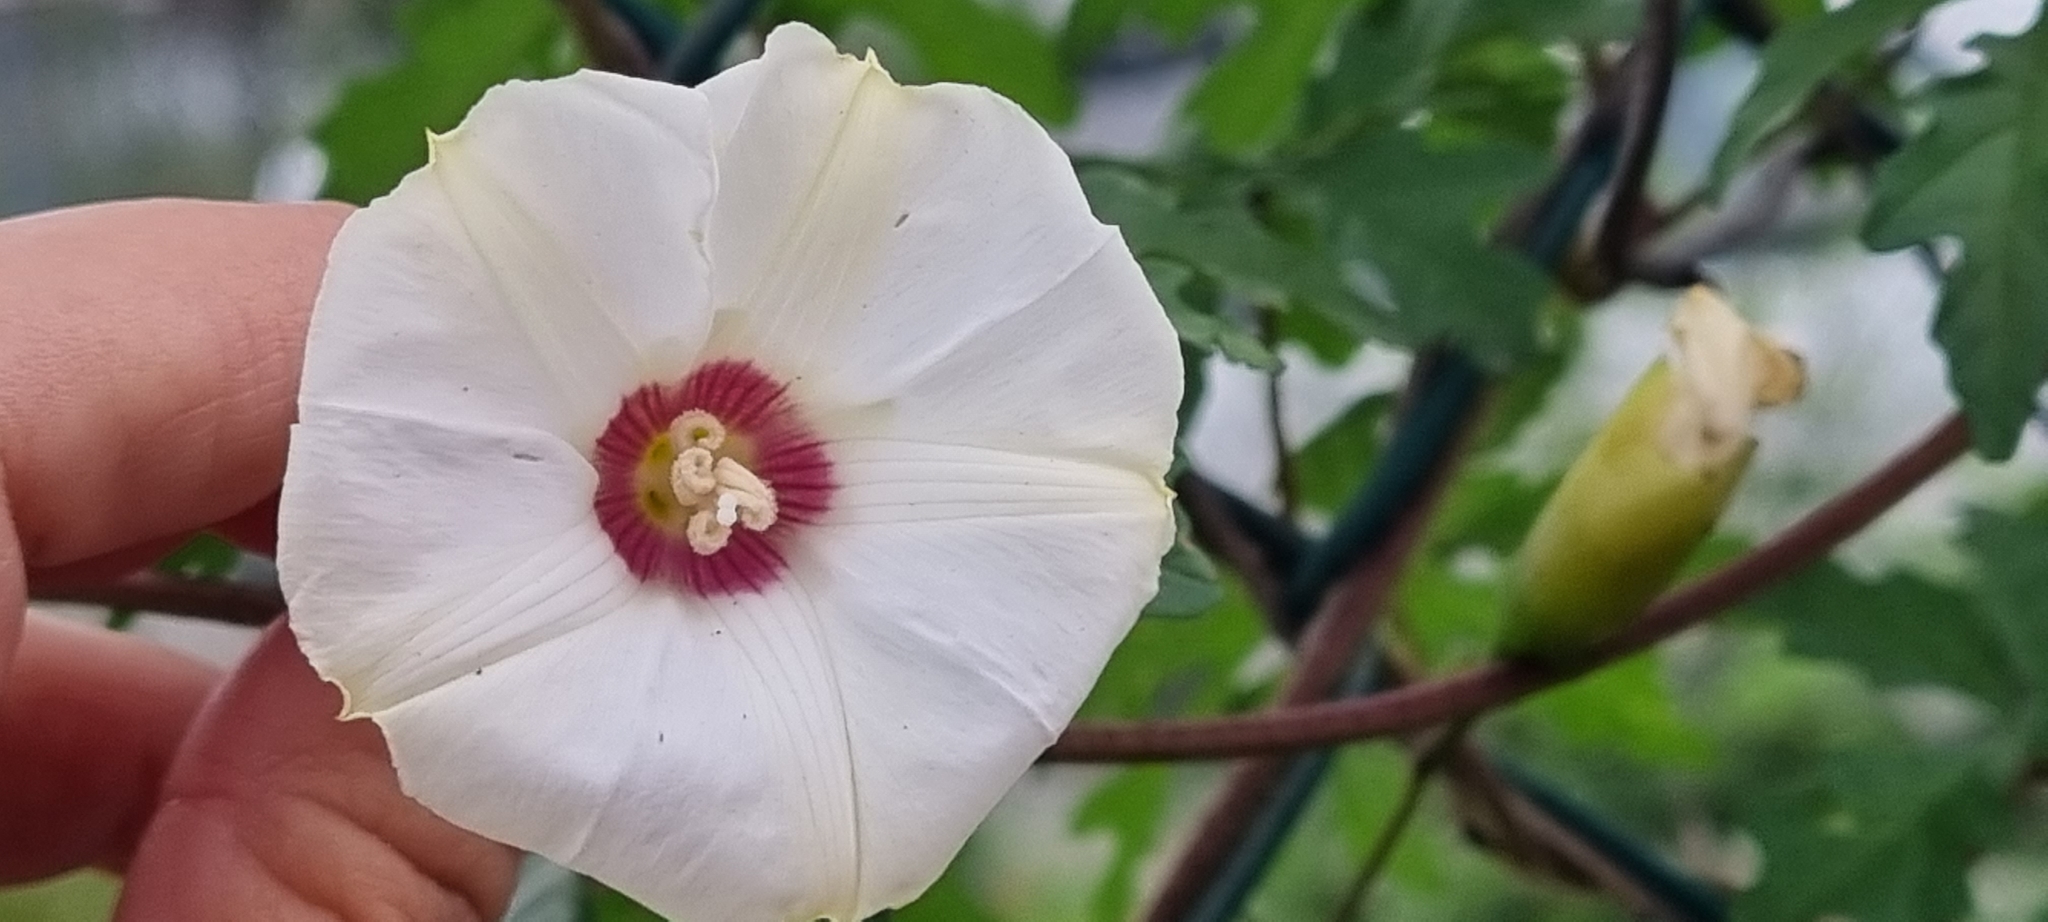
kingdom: Plantae
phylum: Tracheophyta
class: Magnoliopsida
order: Solanales
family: Convolvulaceae
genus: Distimake
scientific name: Distimake dissectus
